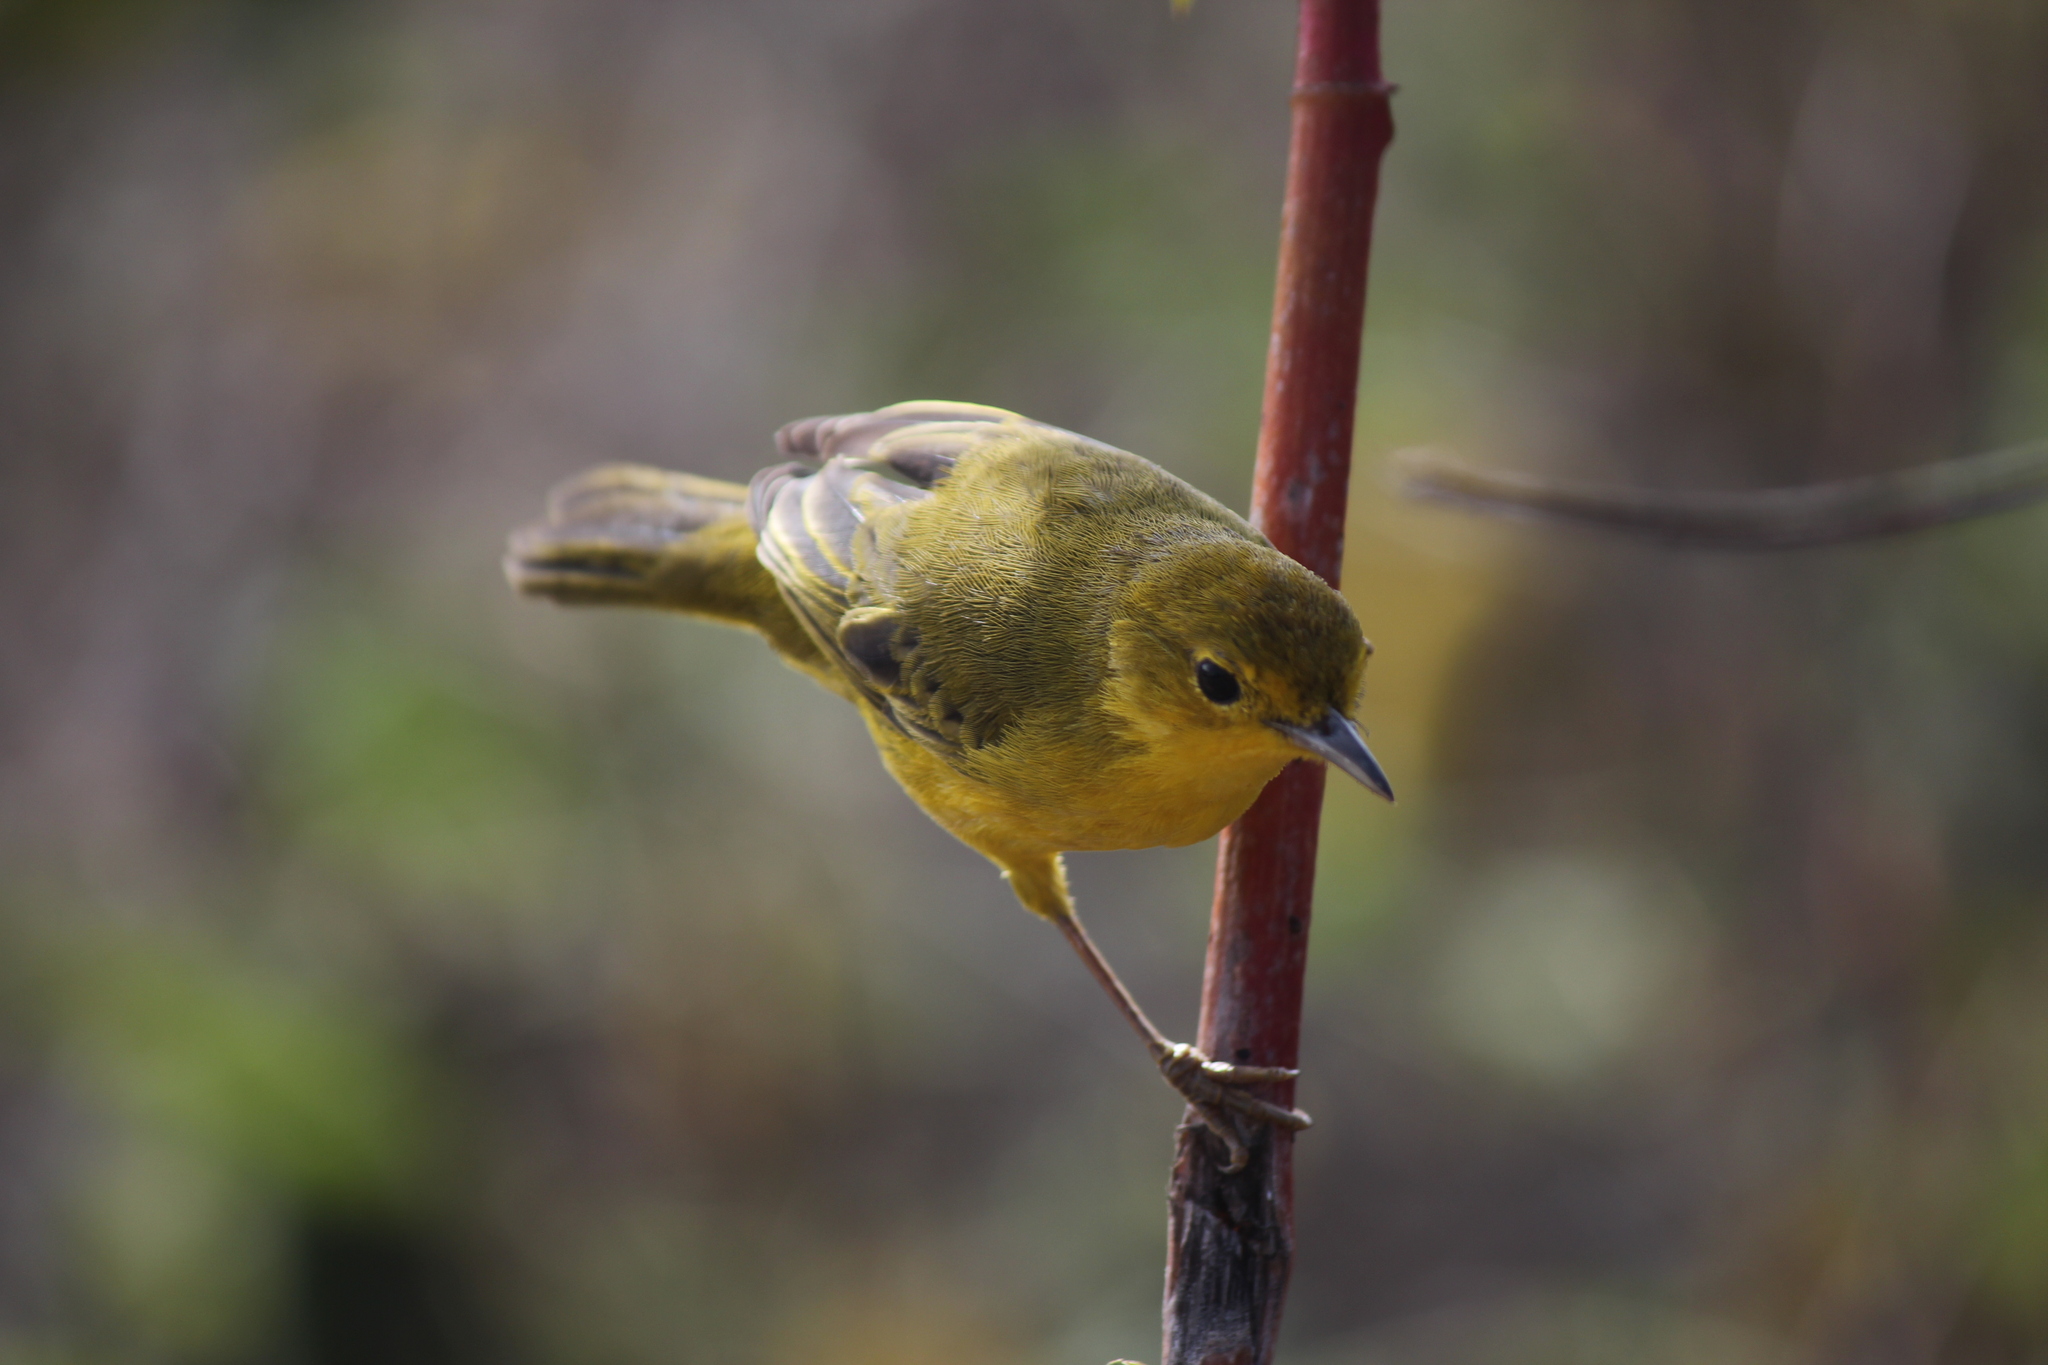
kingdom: Animalia
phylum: Chordata
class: Aves
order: Passeriformes
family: Parulidae
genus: Setophaga
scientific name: Setophaga petechia
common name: Yellow warbler
